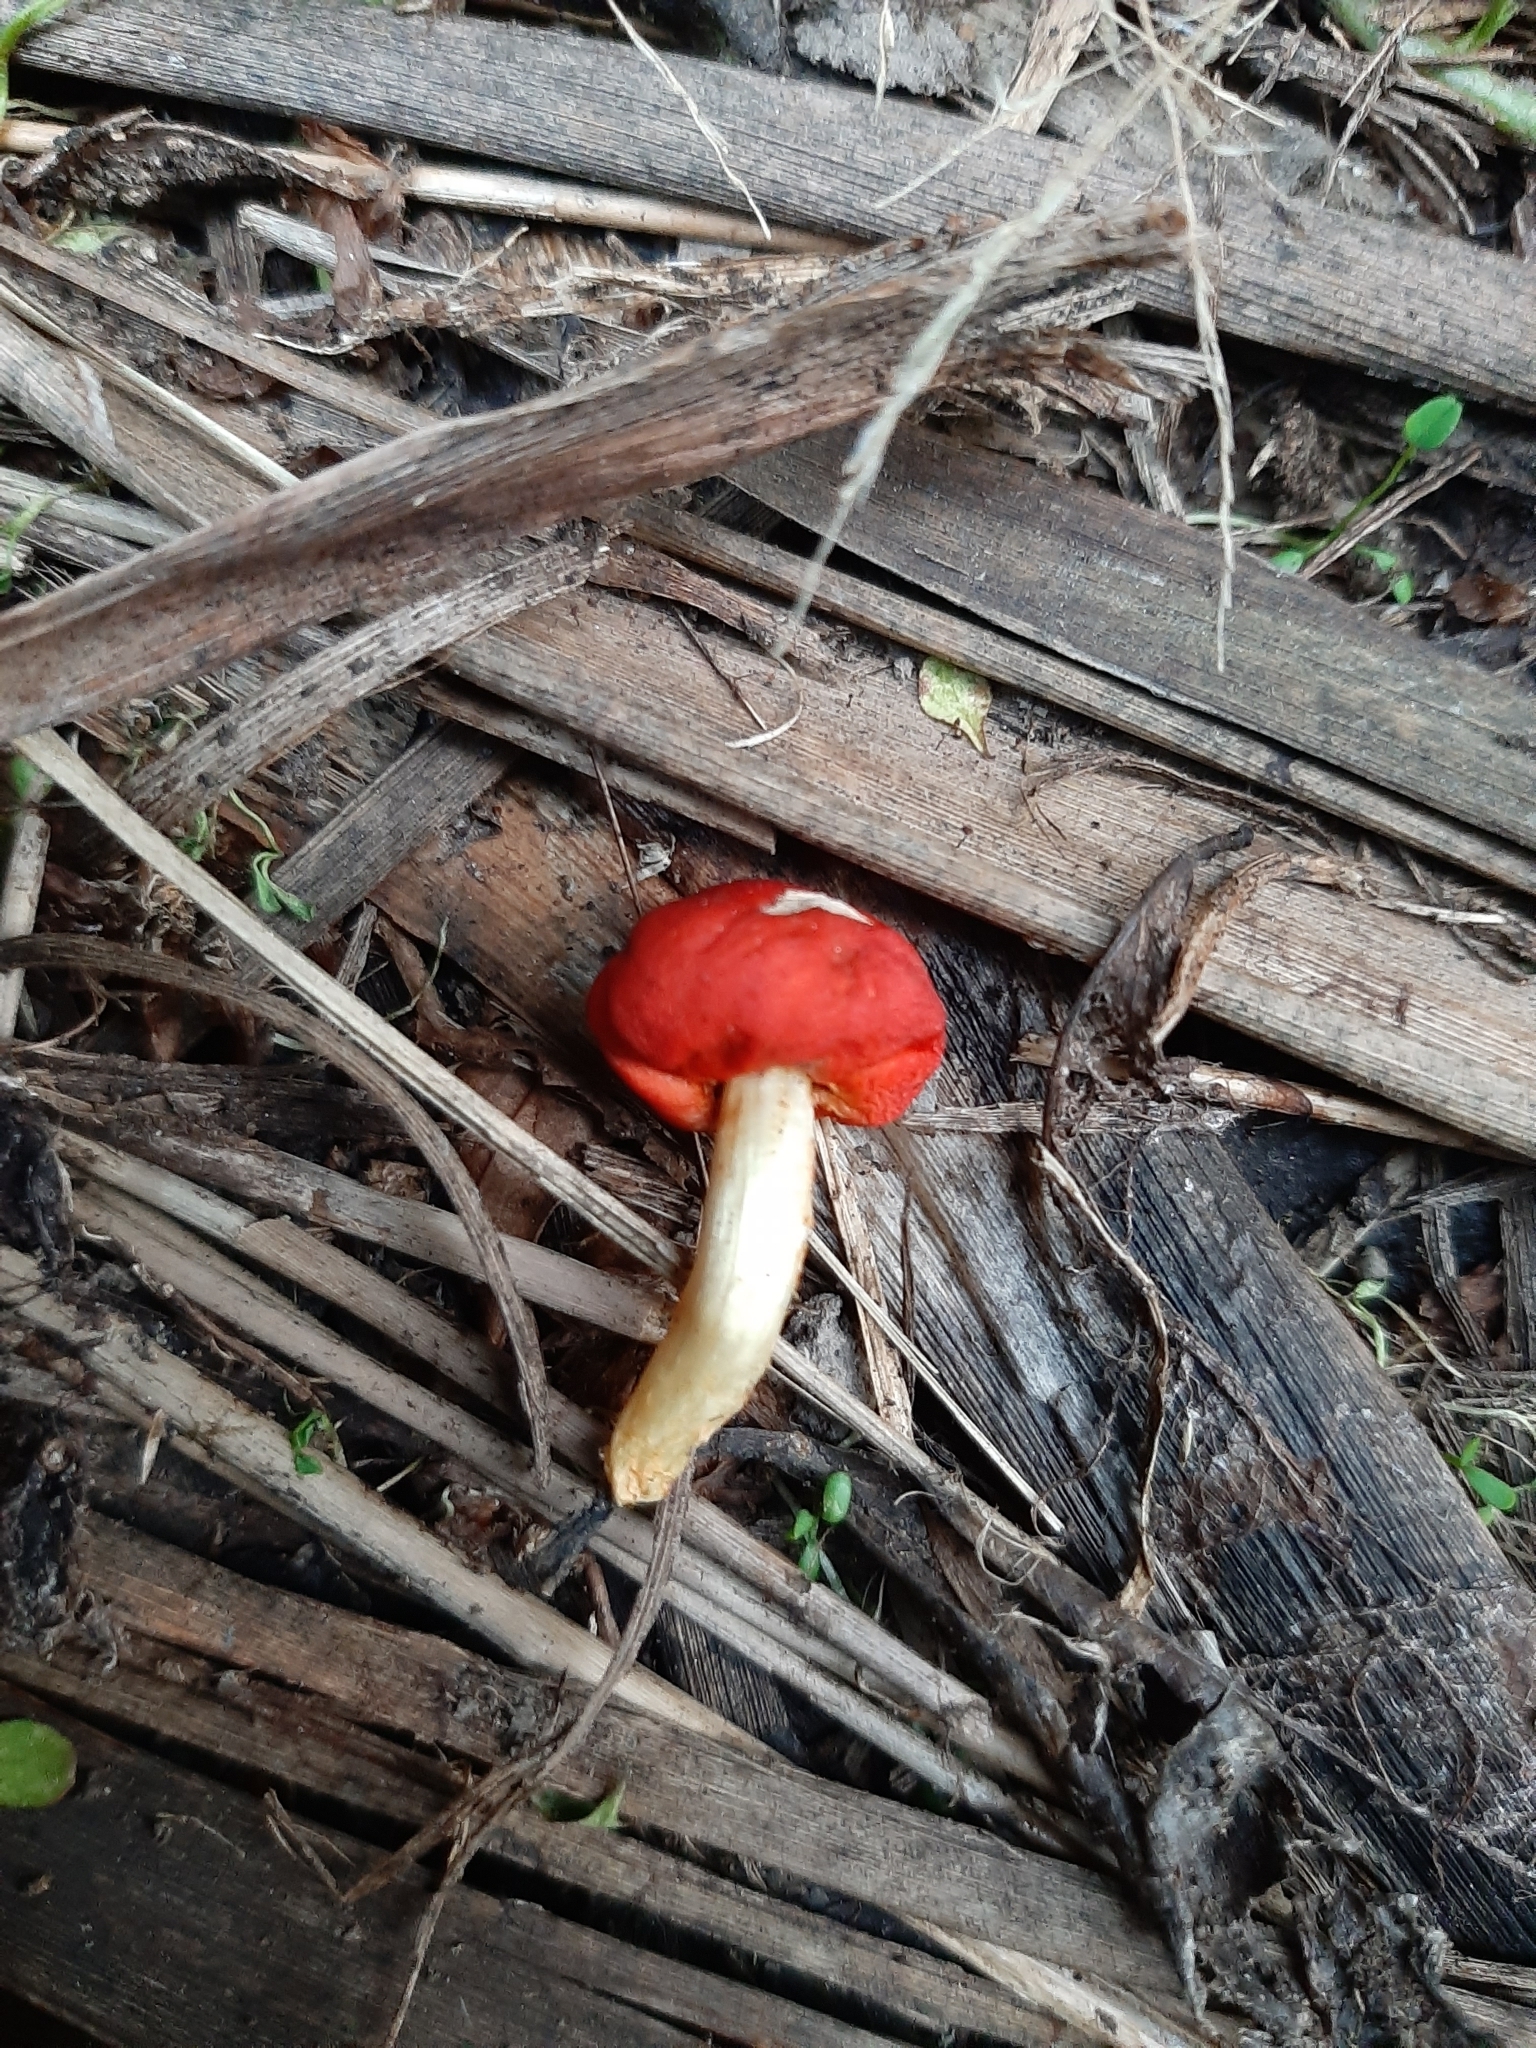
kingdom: Fungi
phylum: Basidiomycota
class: Agaricomycetes
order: Agaricales
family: Strophariaceae
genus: Leratiomyces
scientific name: Leratiomyces erythrocephalus
